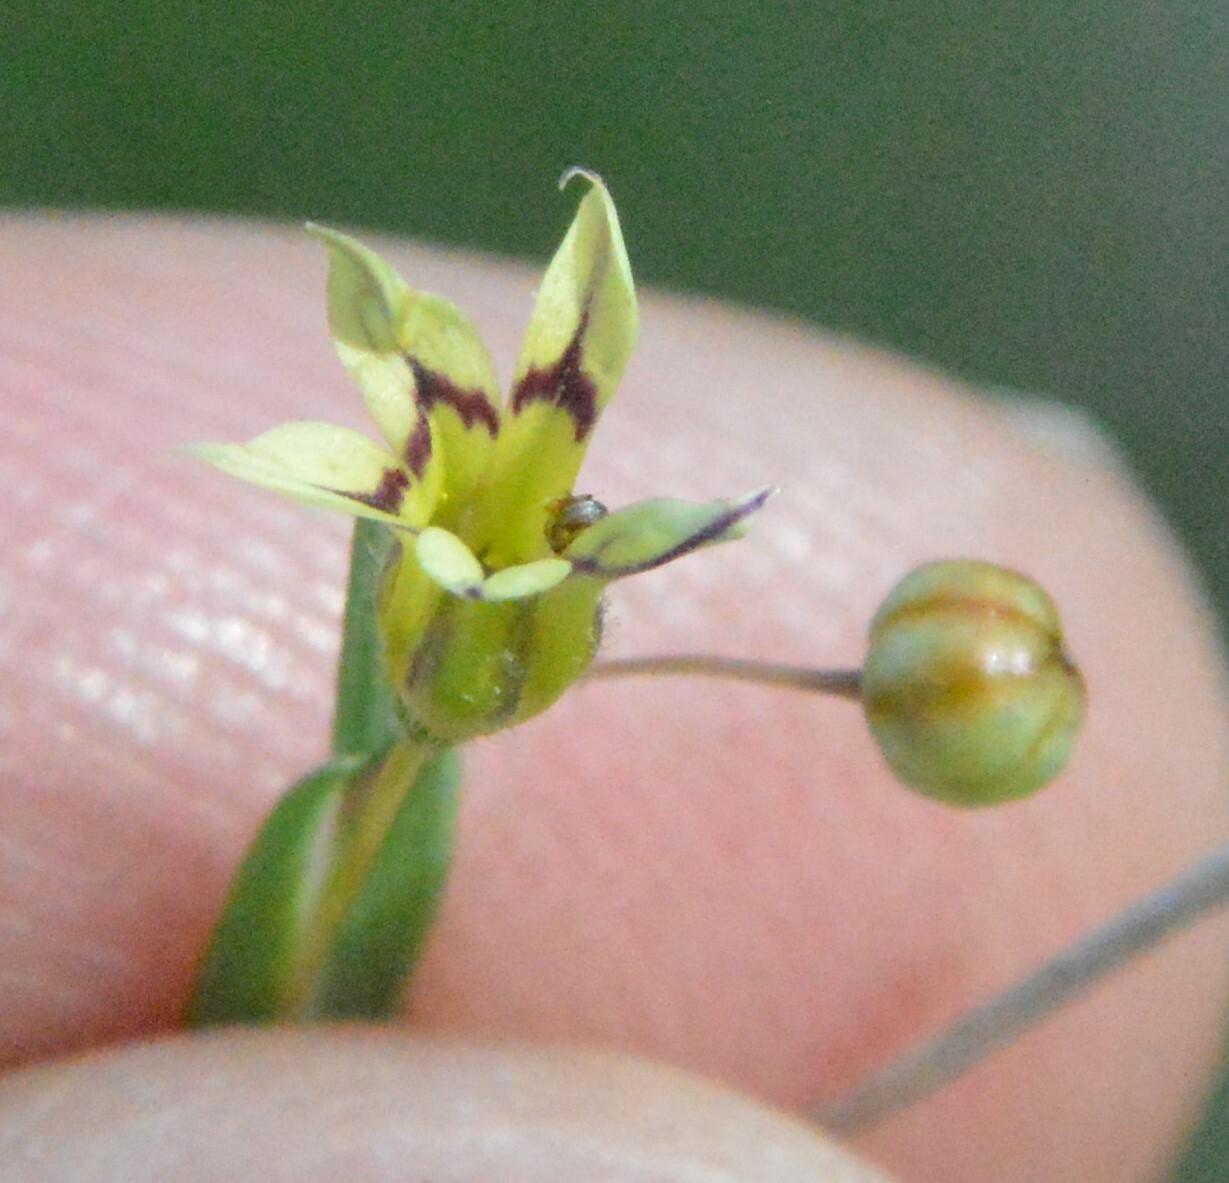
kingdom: Plantae
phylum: Tracheophyta
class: Liliopsida
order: Asparagales
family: Iridaceae
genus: Sisyrinchium
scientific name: Sisyrinchium micranthum
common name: Bermuda pigroot
